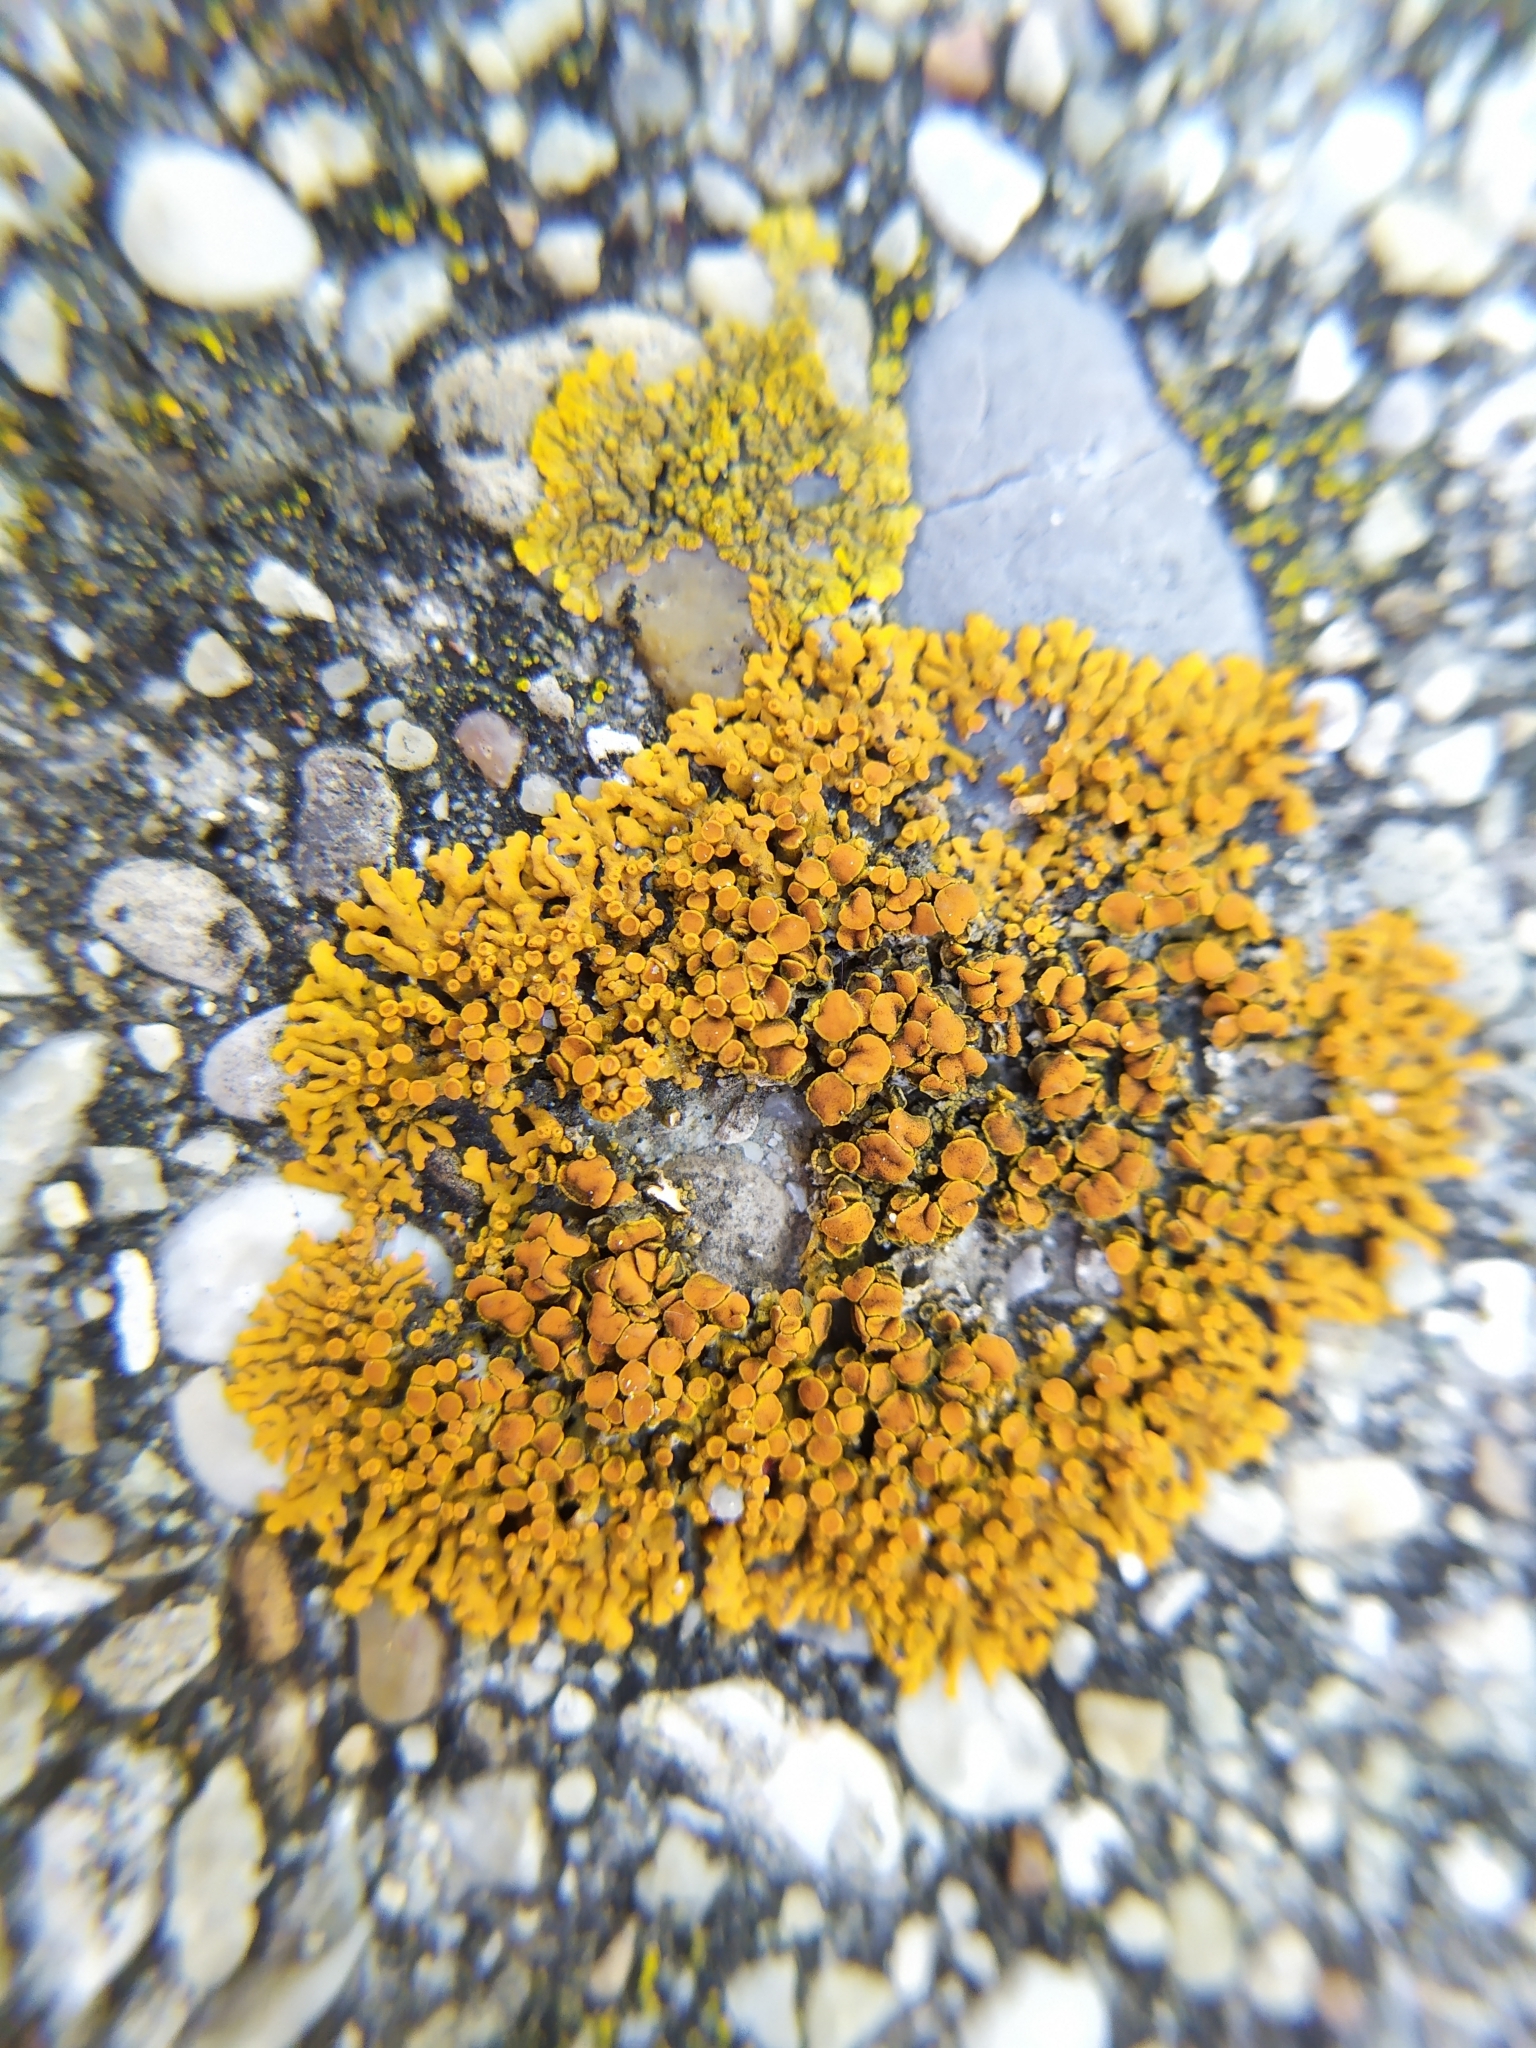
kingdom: Fungi
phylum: Ascomycota
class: Lecanoromycetes
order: Teloschistales
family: Teloschistaceae
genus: Xanthoria
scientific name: Xanthoria elegans
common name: Elegant sunburst lichen
